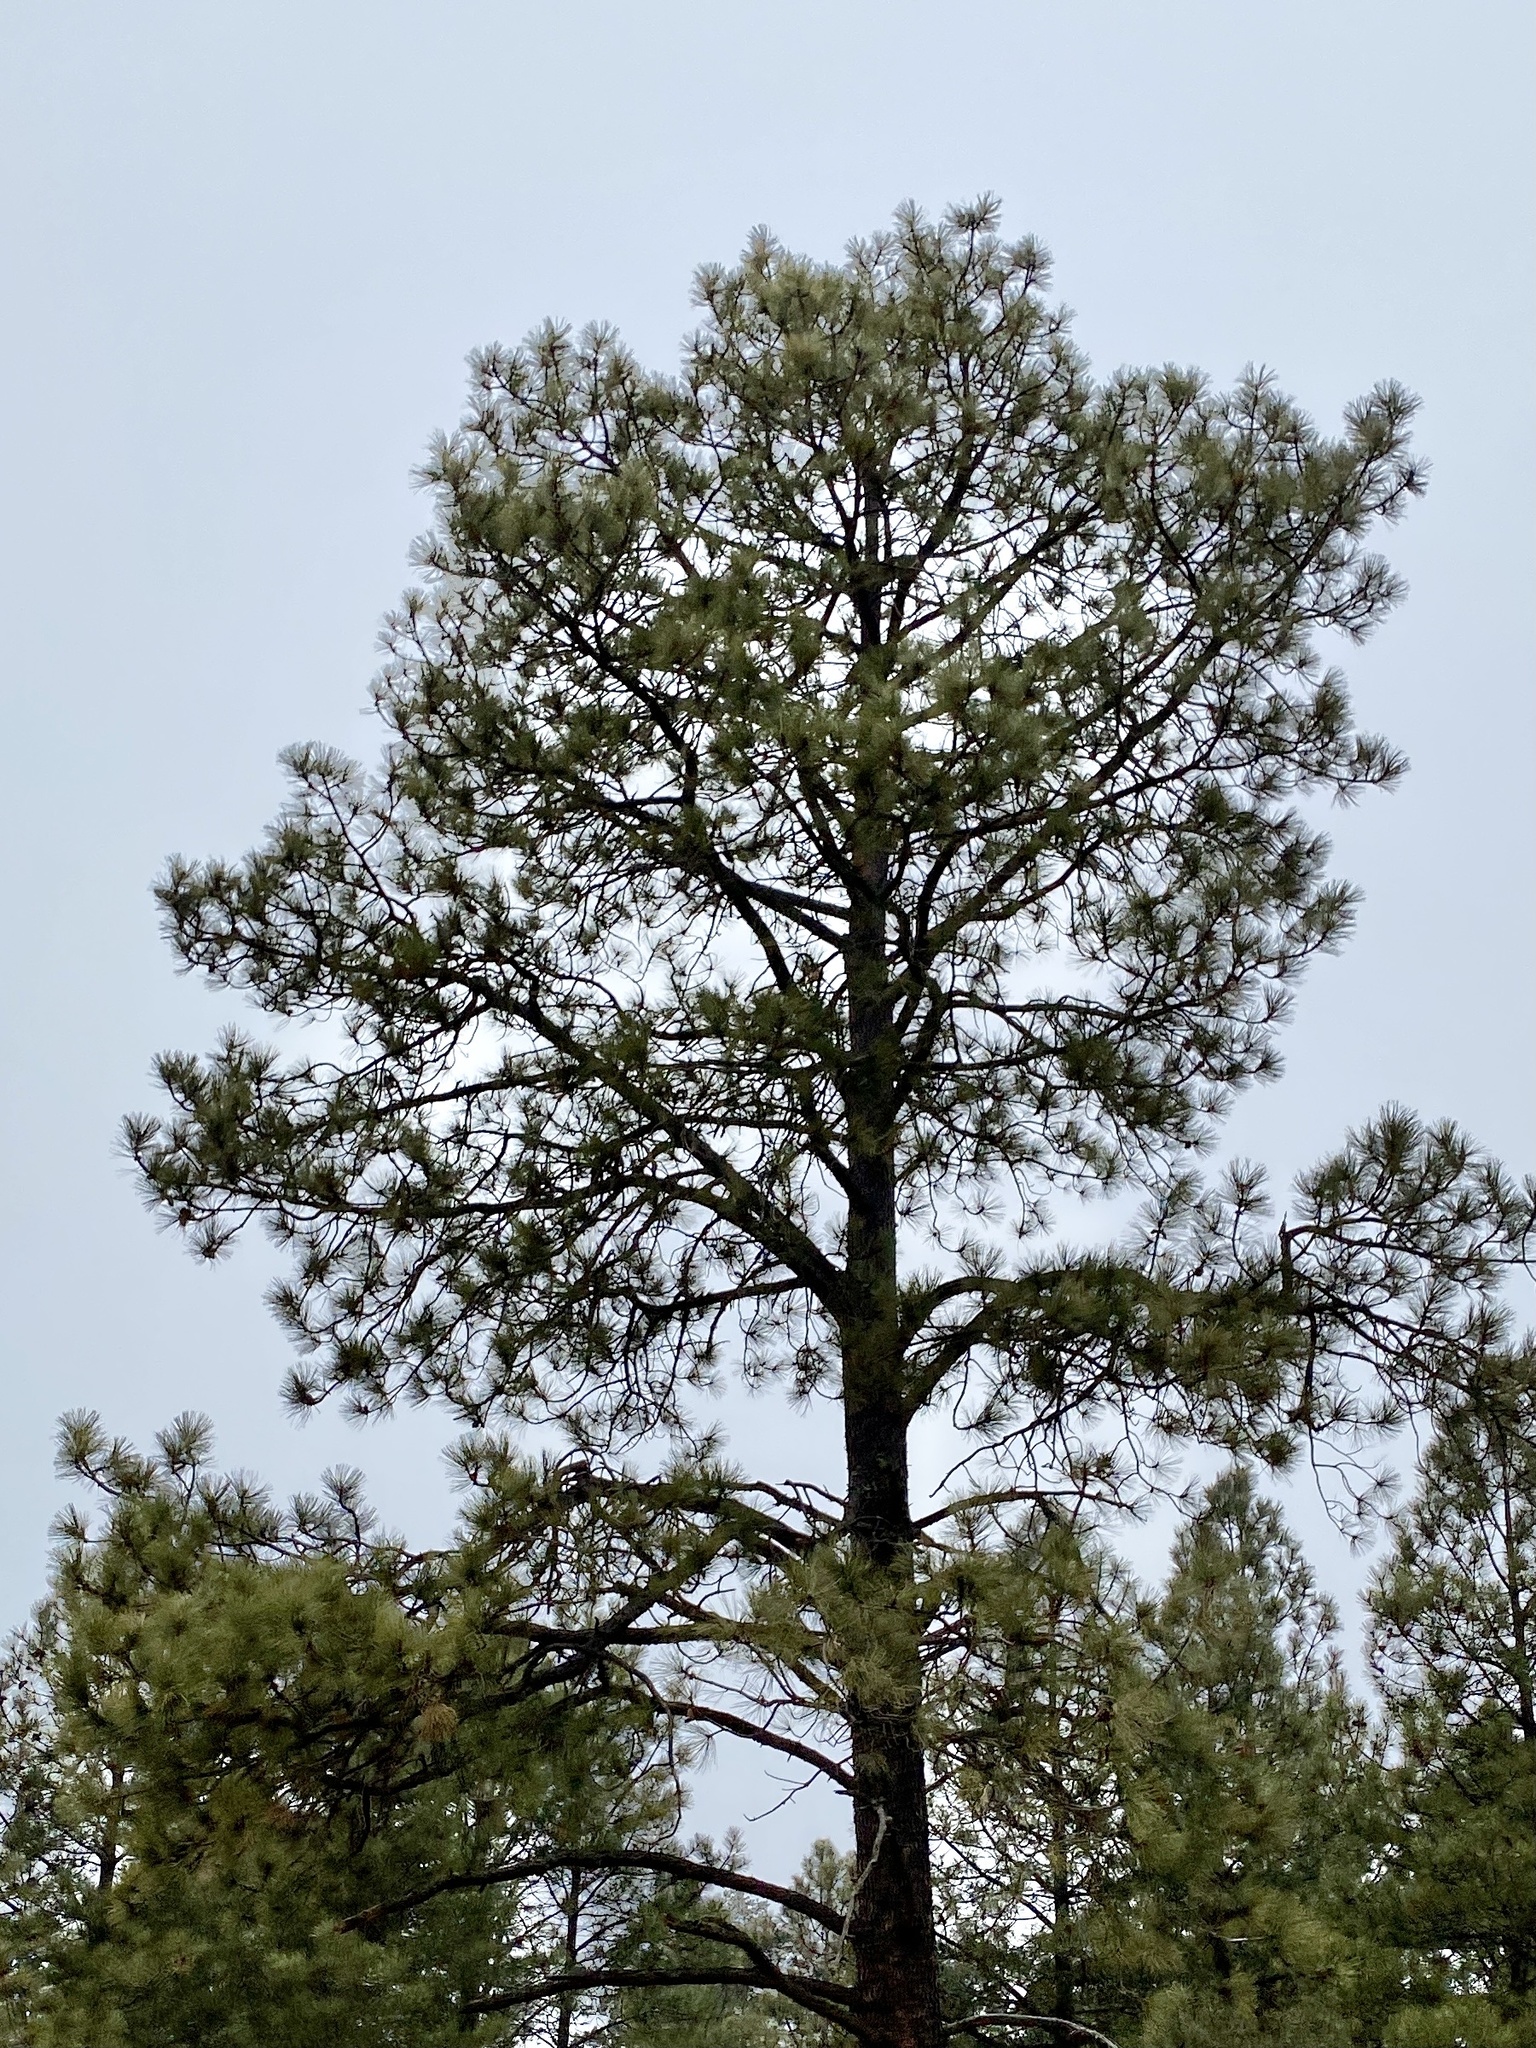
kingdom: Plantae
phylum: Tracheophyta
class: Pinopsida
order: Pinales
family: Pinaceae
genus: Pinus
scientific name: Pinus ponderosa
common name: Western yellow-pine
